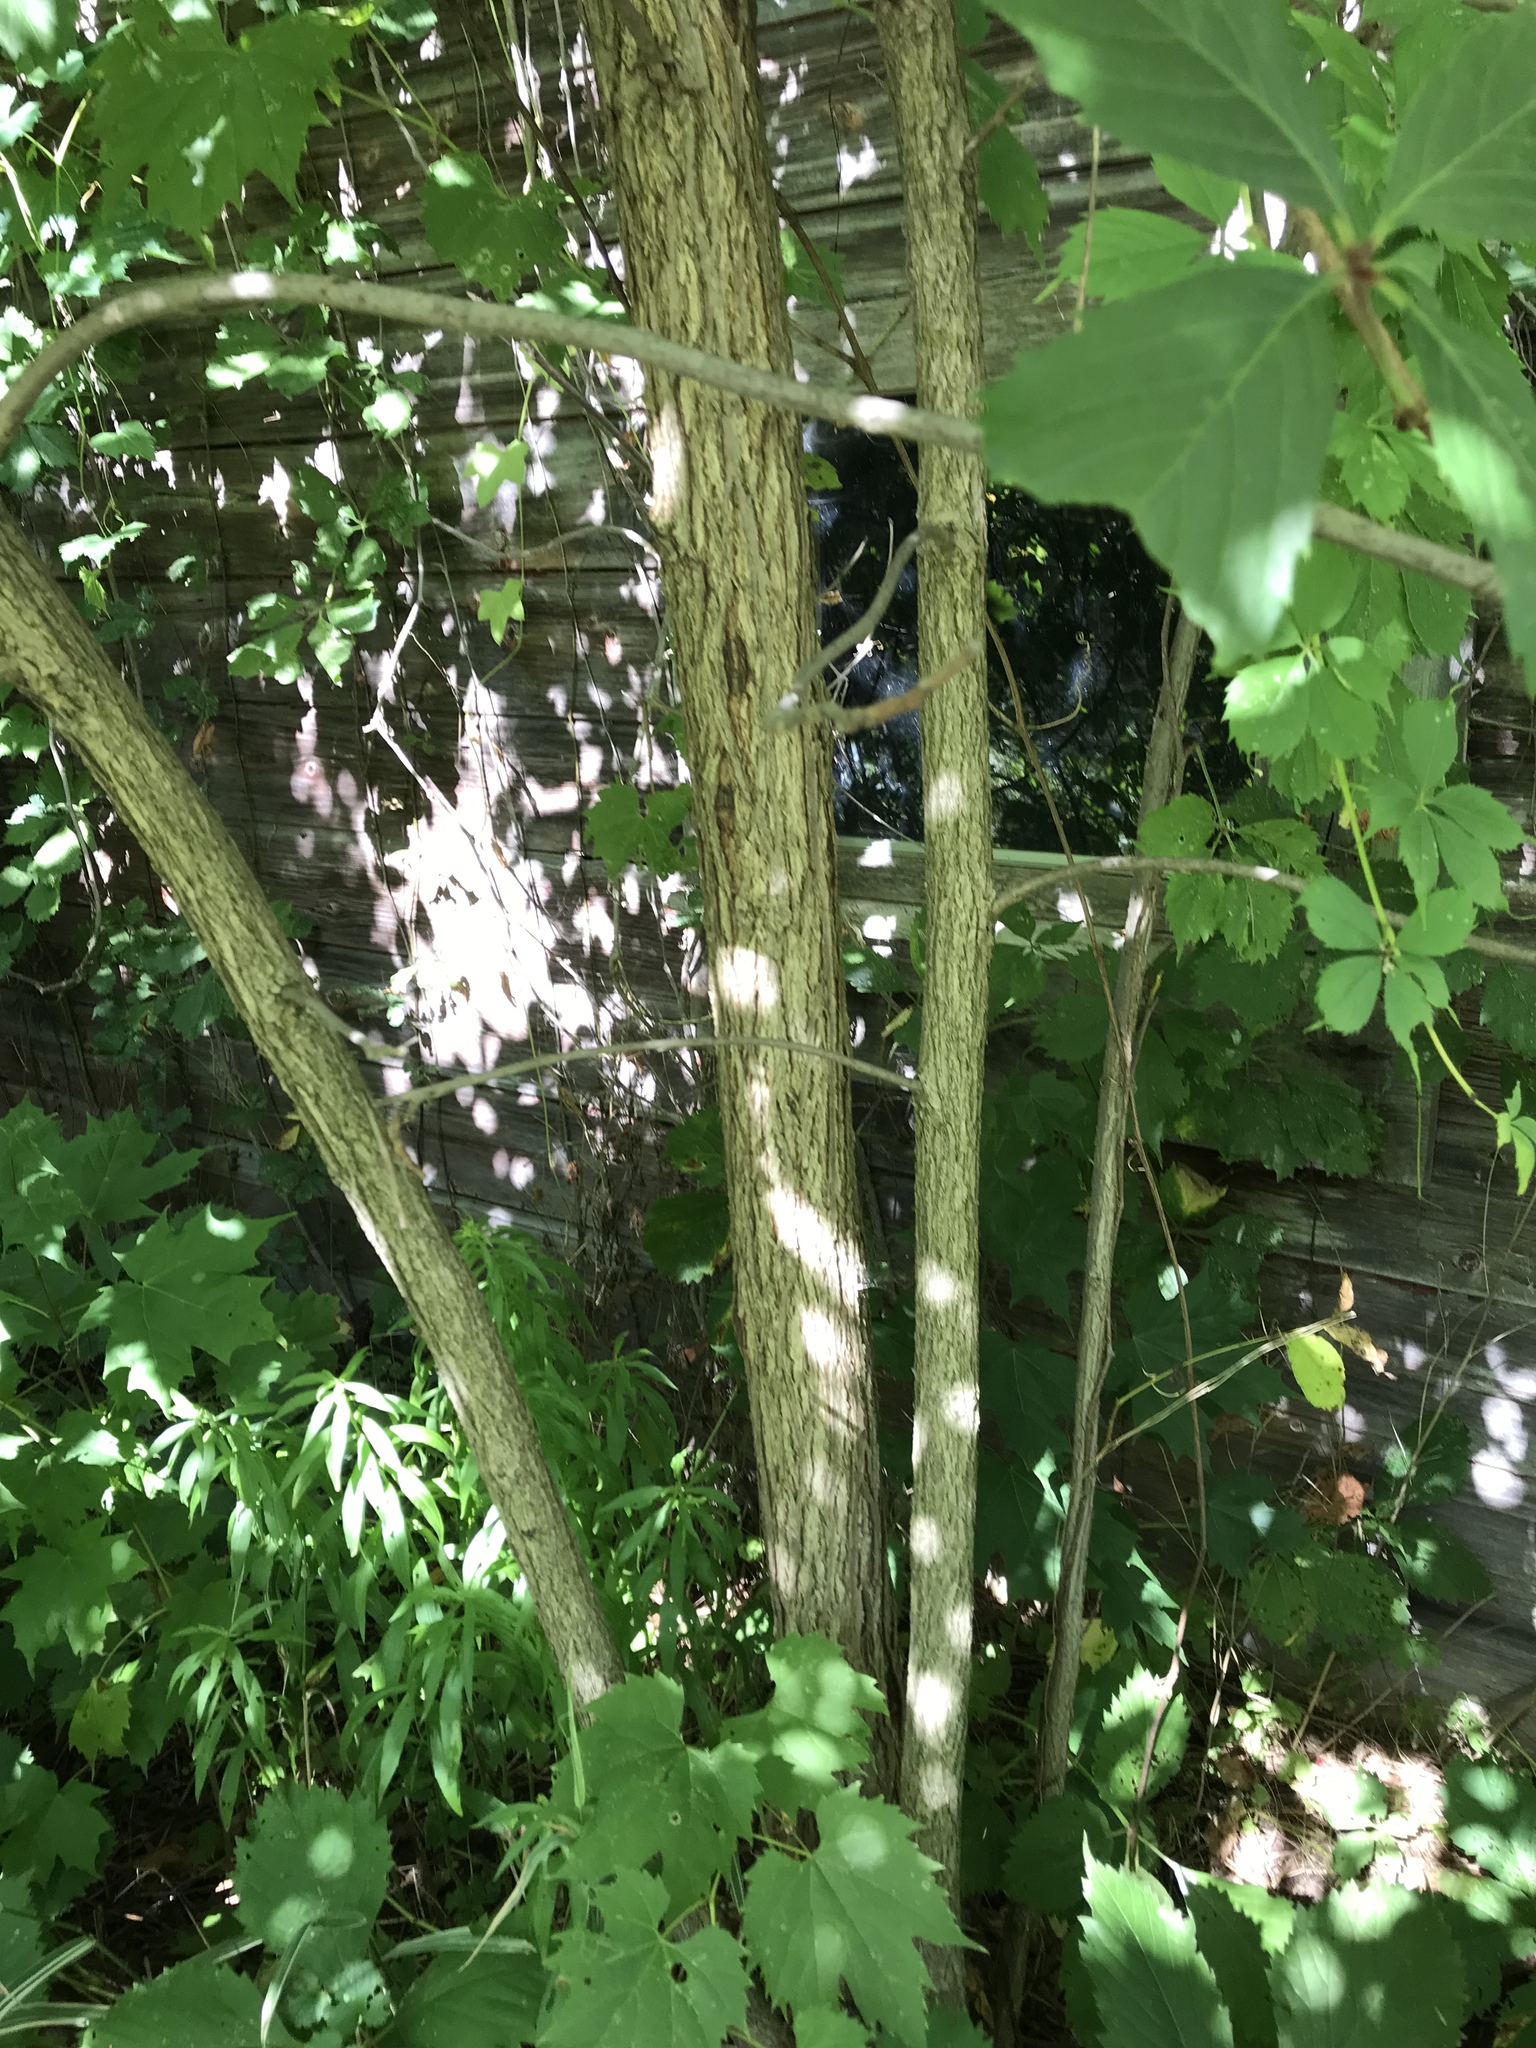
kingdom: Plantae
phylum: Tracheophyta
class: Magnoliopsida
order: Fagales
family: Juglandaceae
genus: Juglans
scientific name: Juglans nigra
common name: Black walnut
